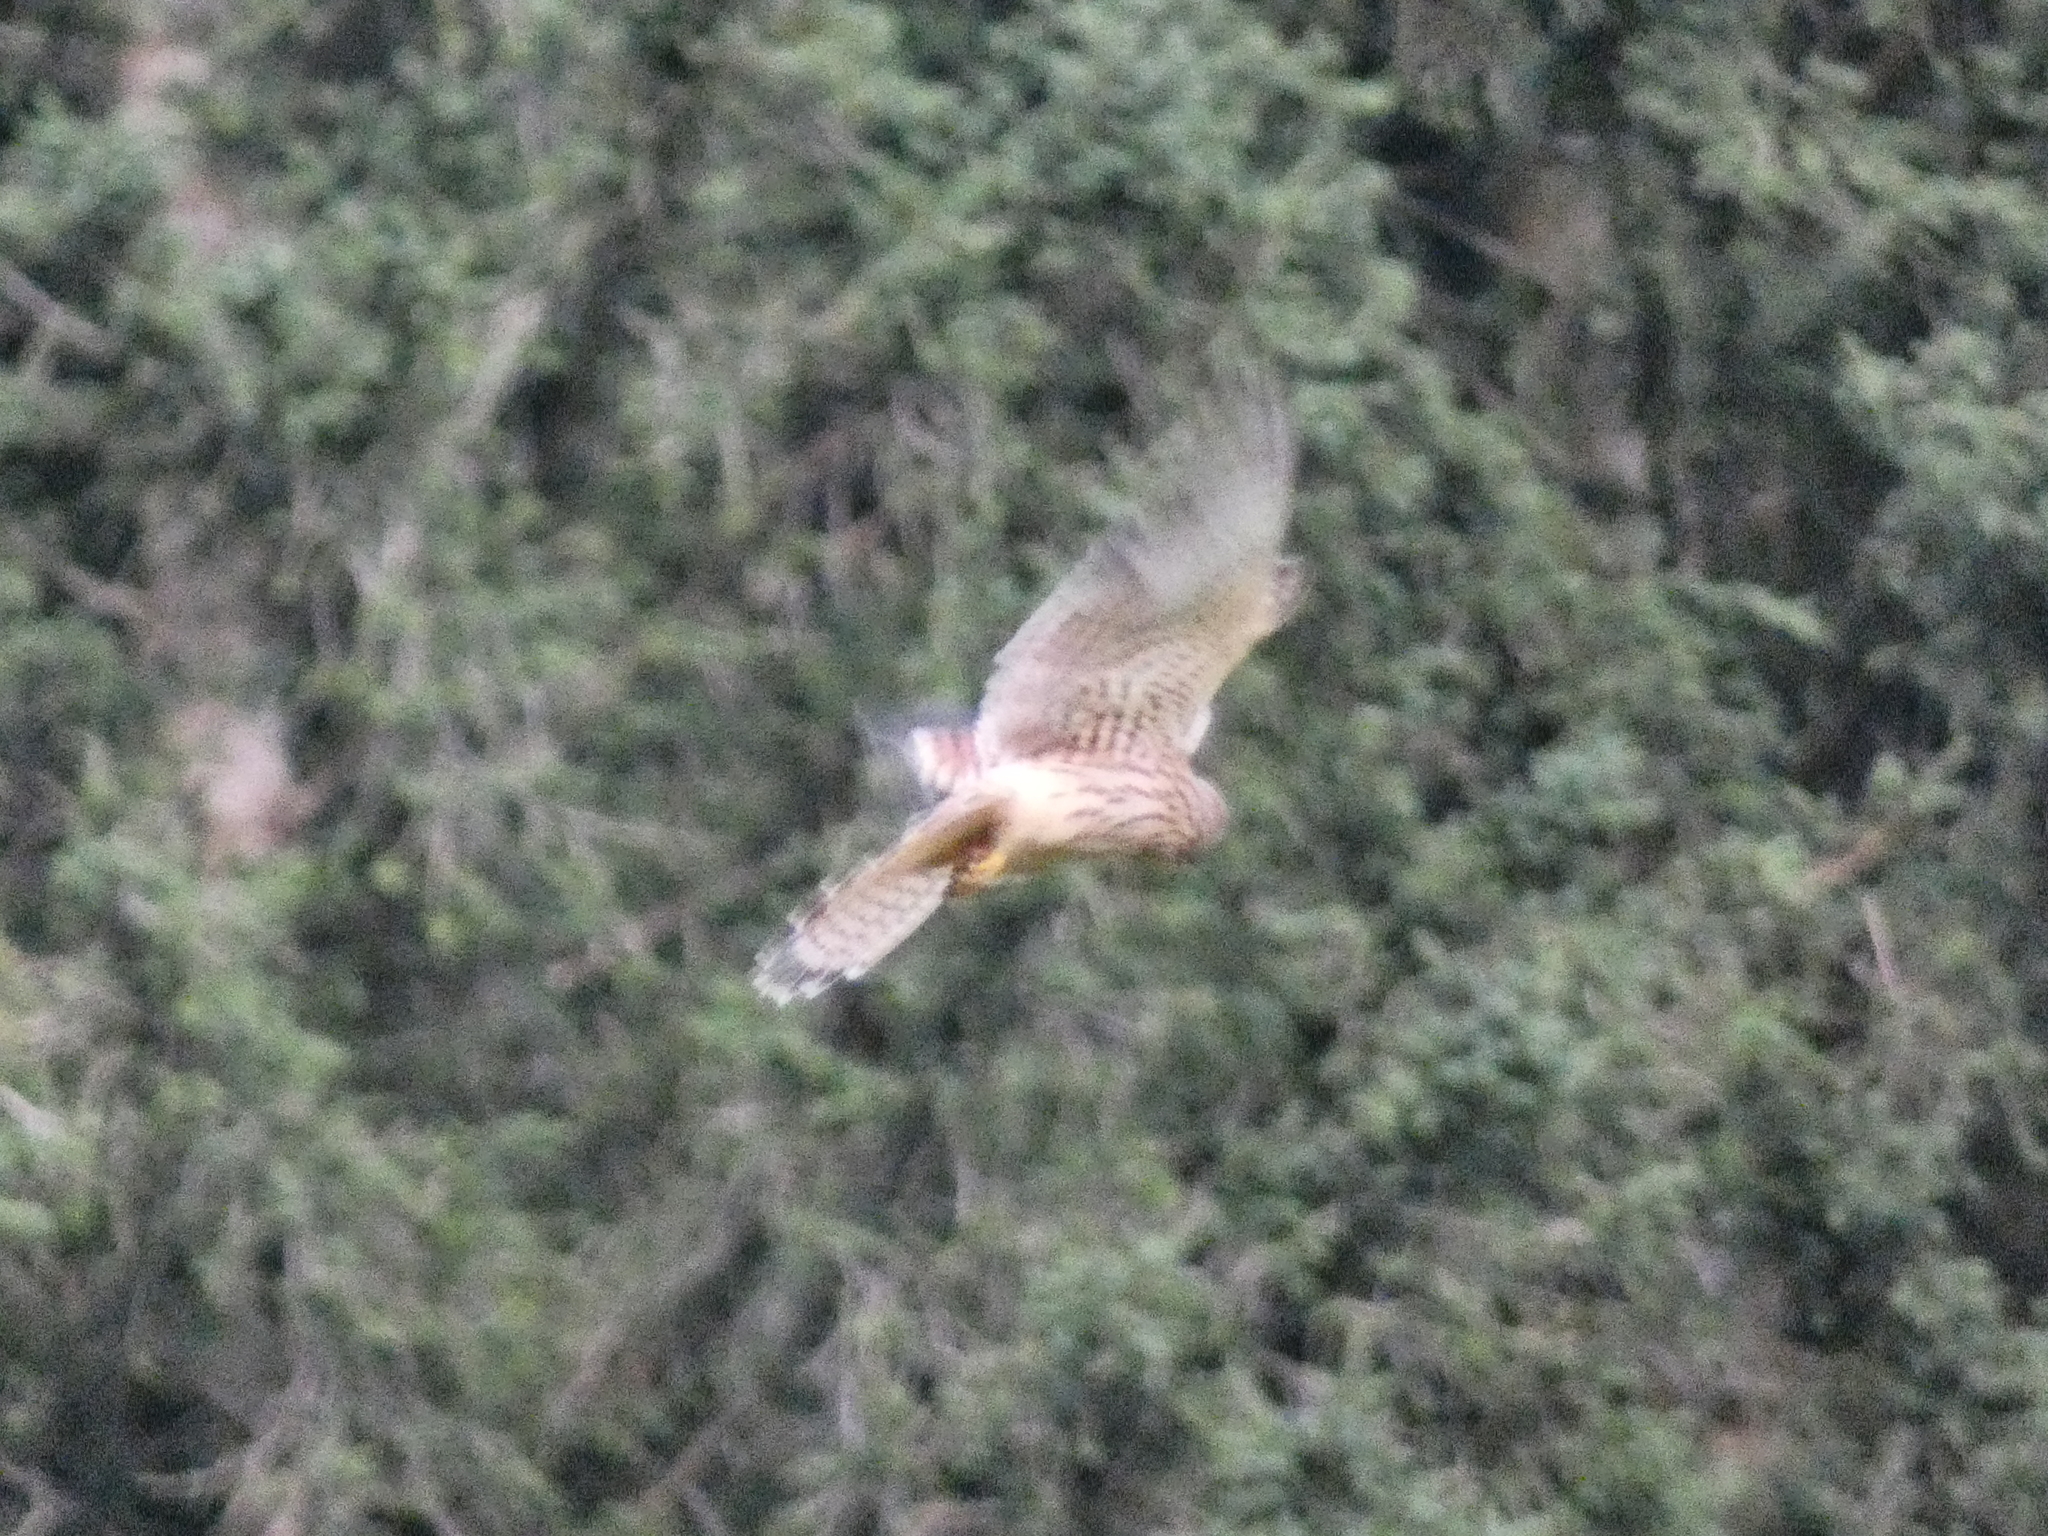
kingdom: Animalia
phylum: Chordata
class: Aves
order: Falconiformes
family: Falconidae
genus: Falco
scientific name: Falco tinnunculus
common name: Common kestrel
